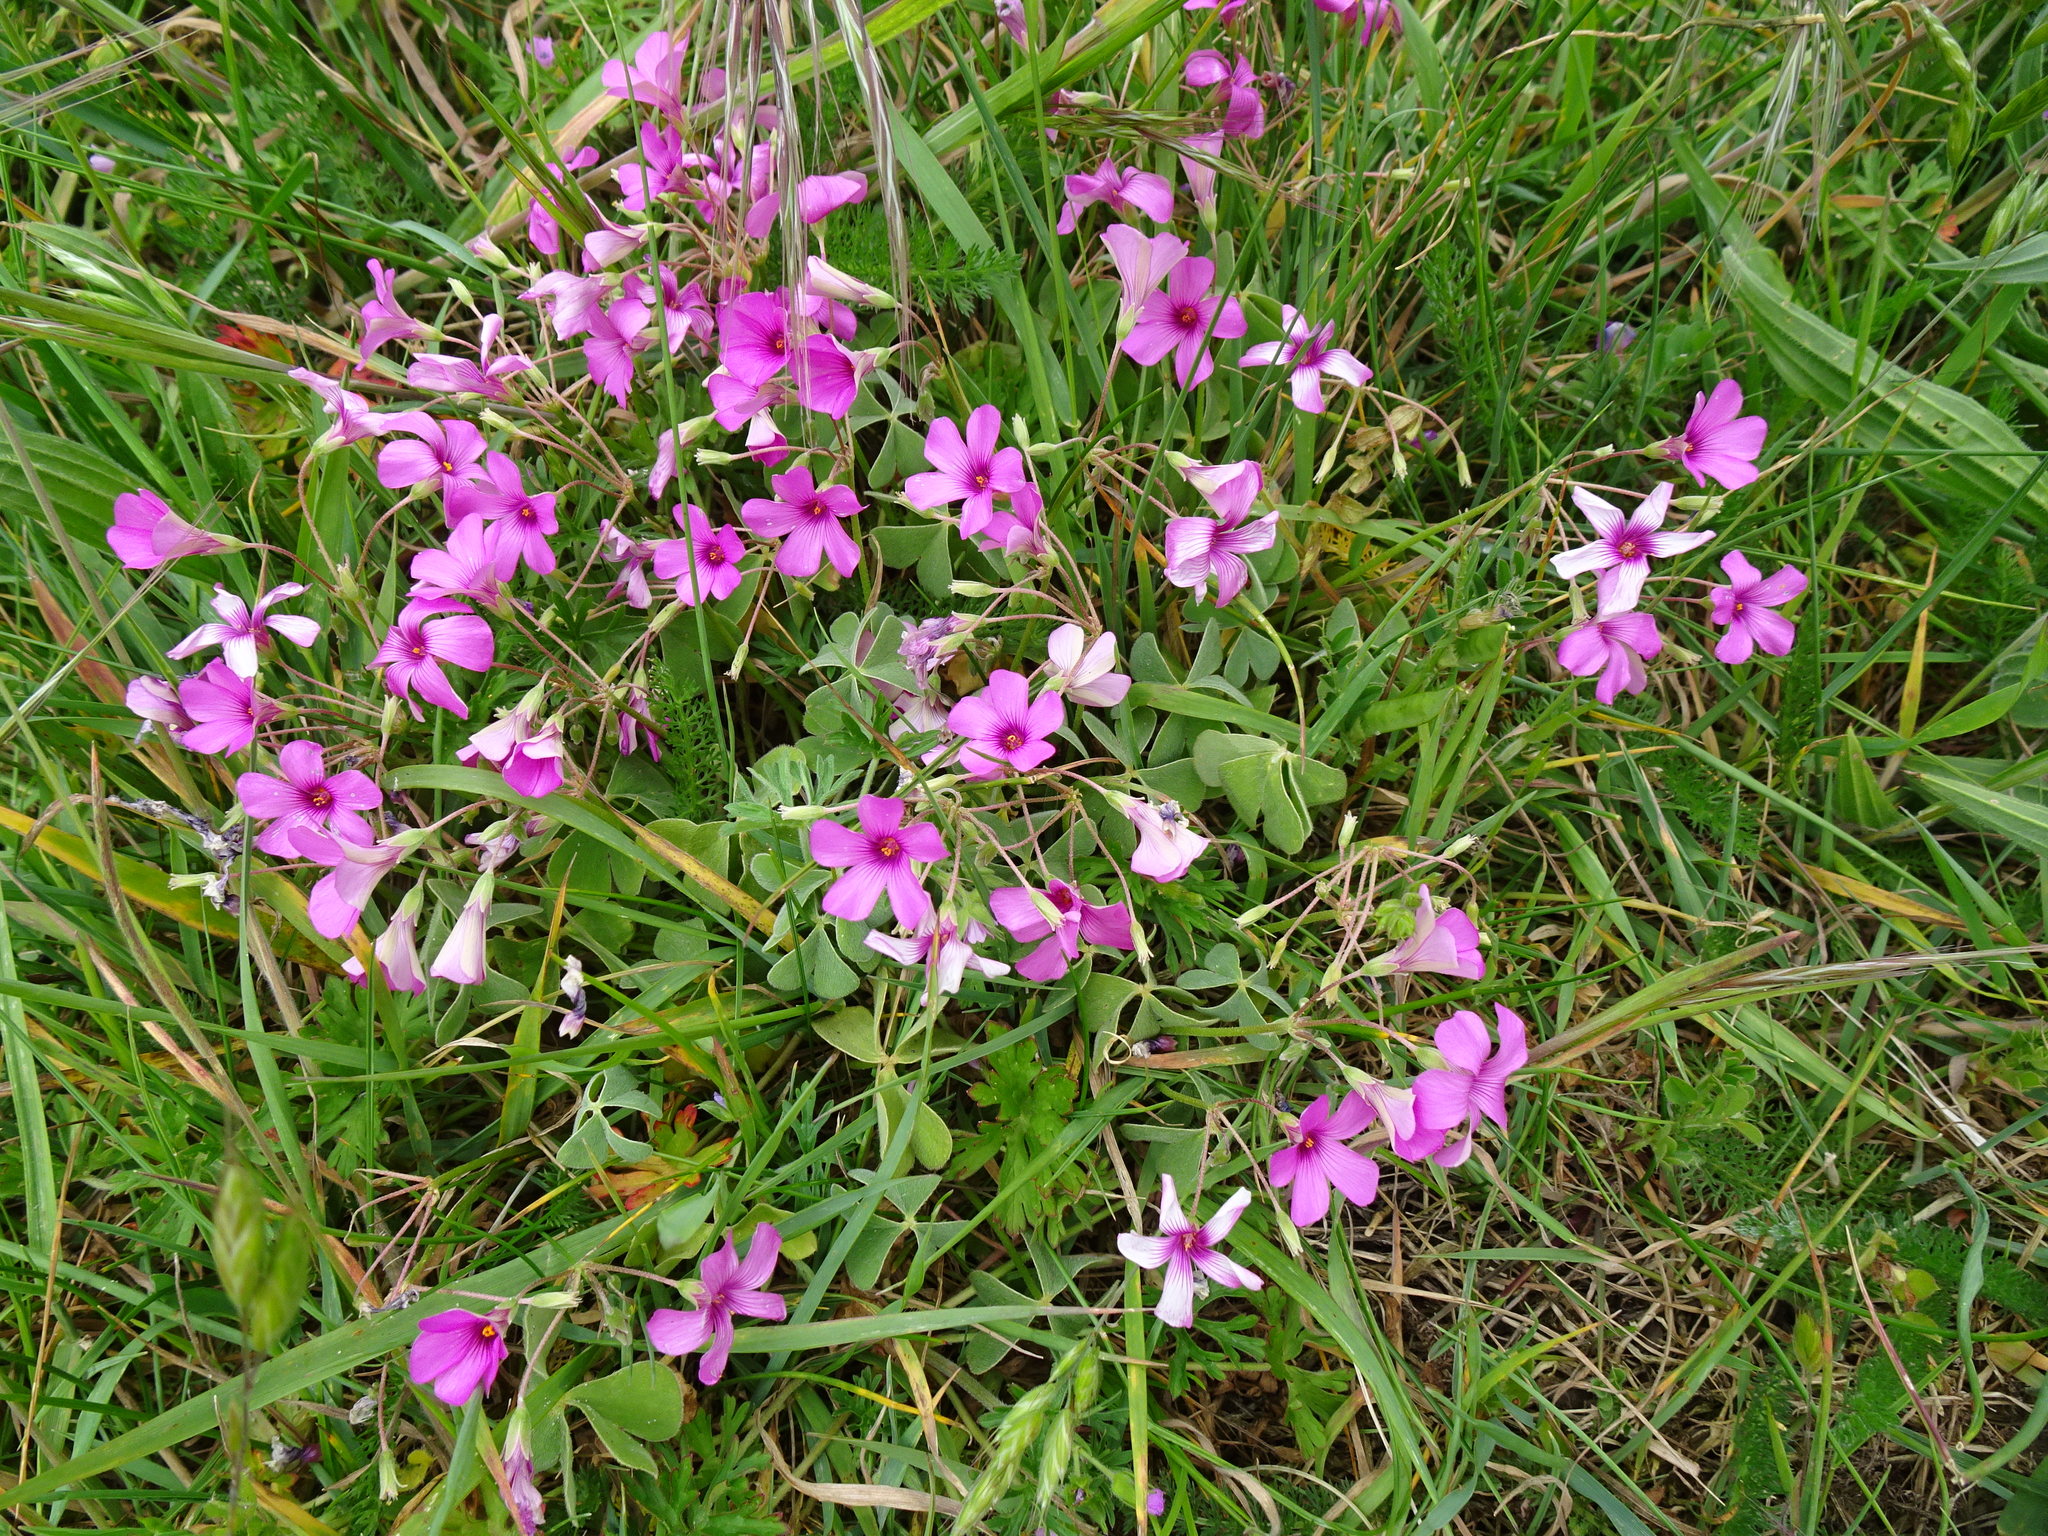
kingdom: Plantae
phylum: Tracheophyta
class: Magnoliopsida
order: Oxalidales
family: Oxalidaceae
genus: Oxalis
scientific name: Oxalis articulata
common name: Pink-sorrel
